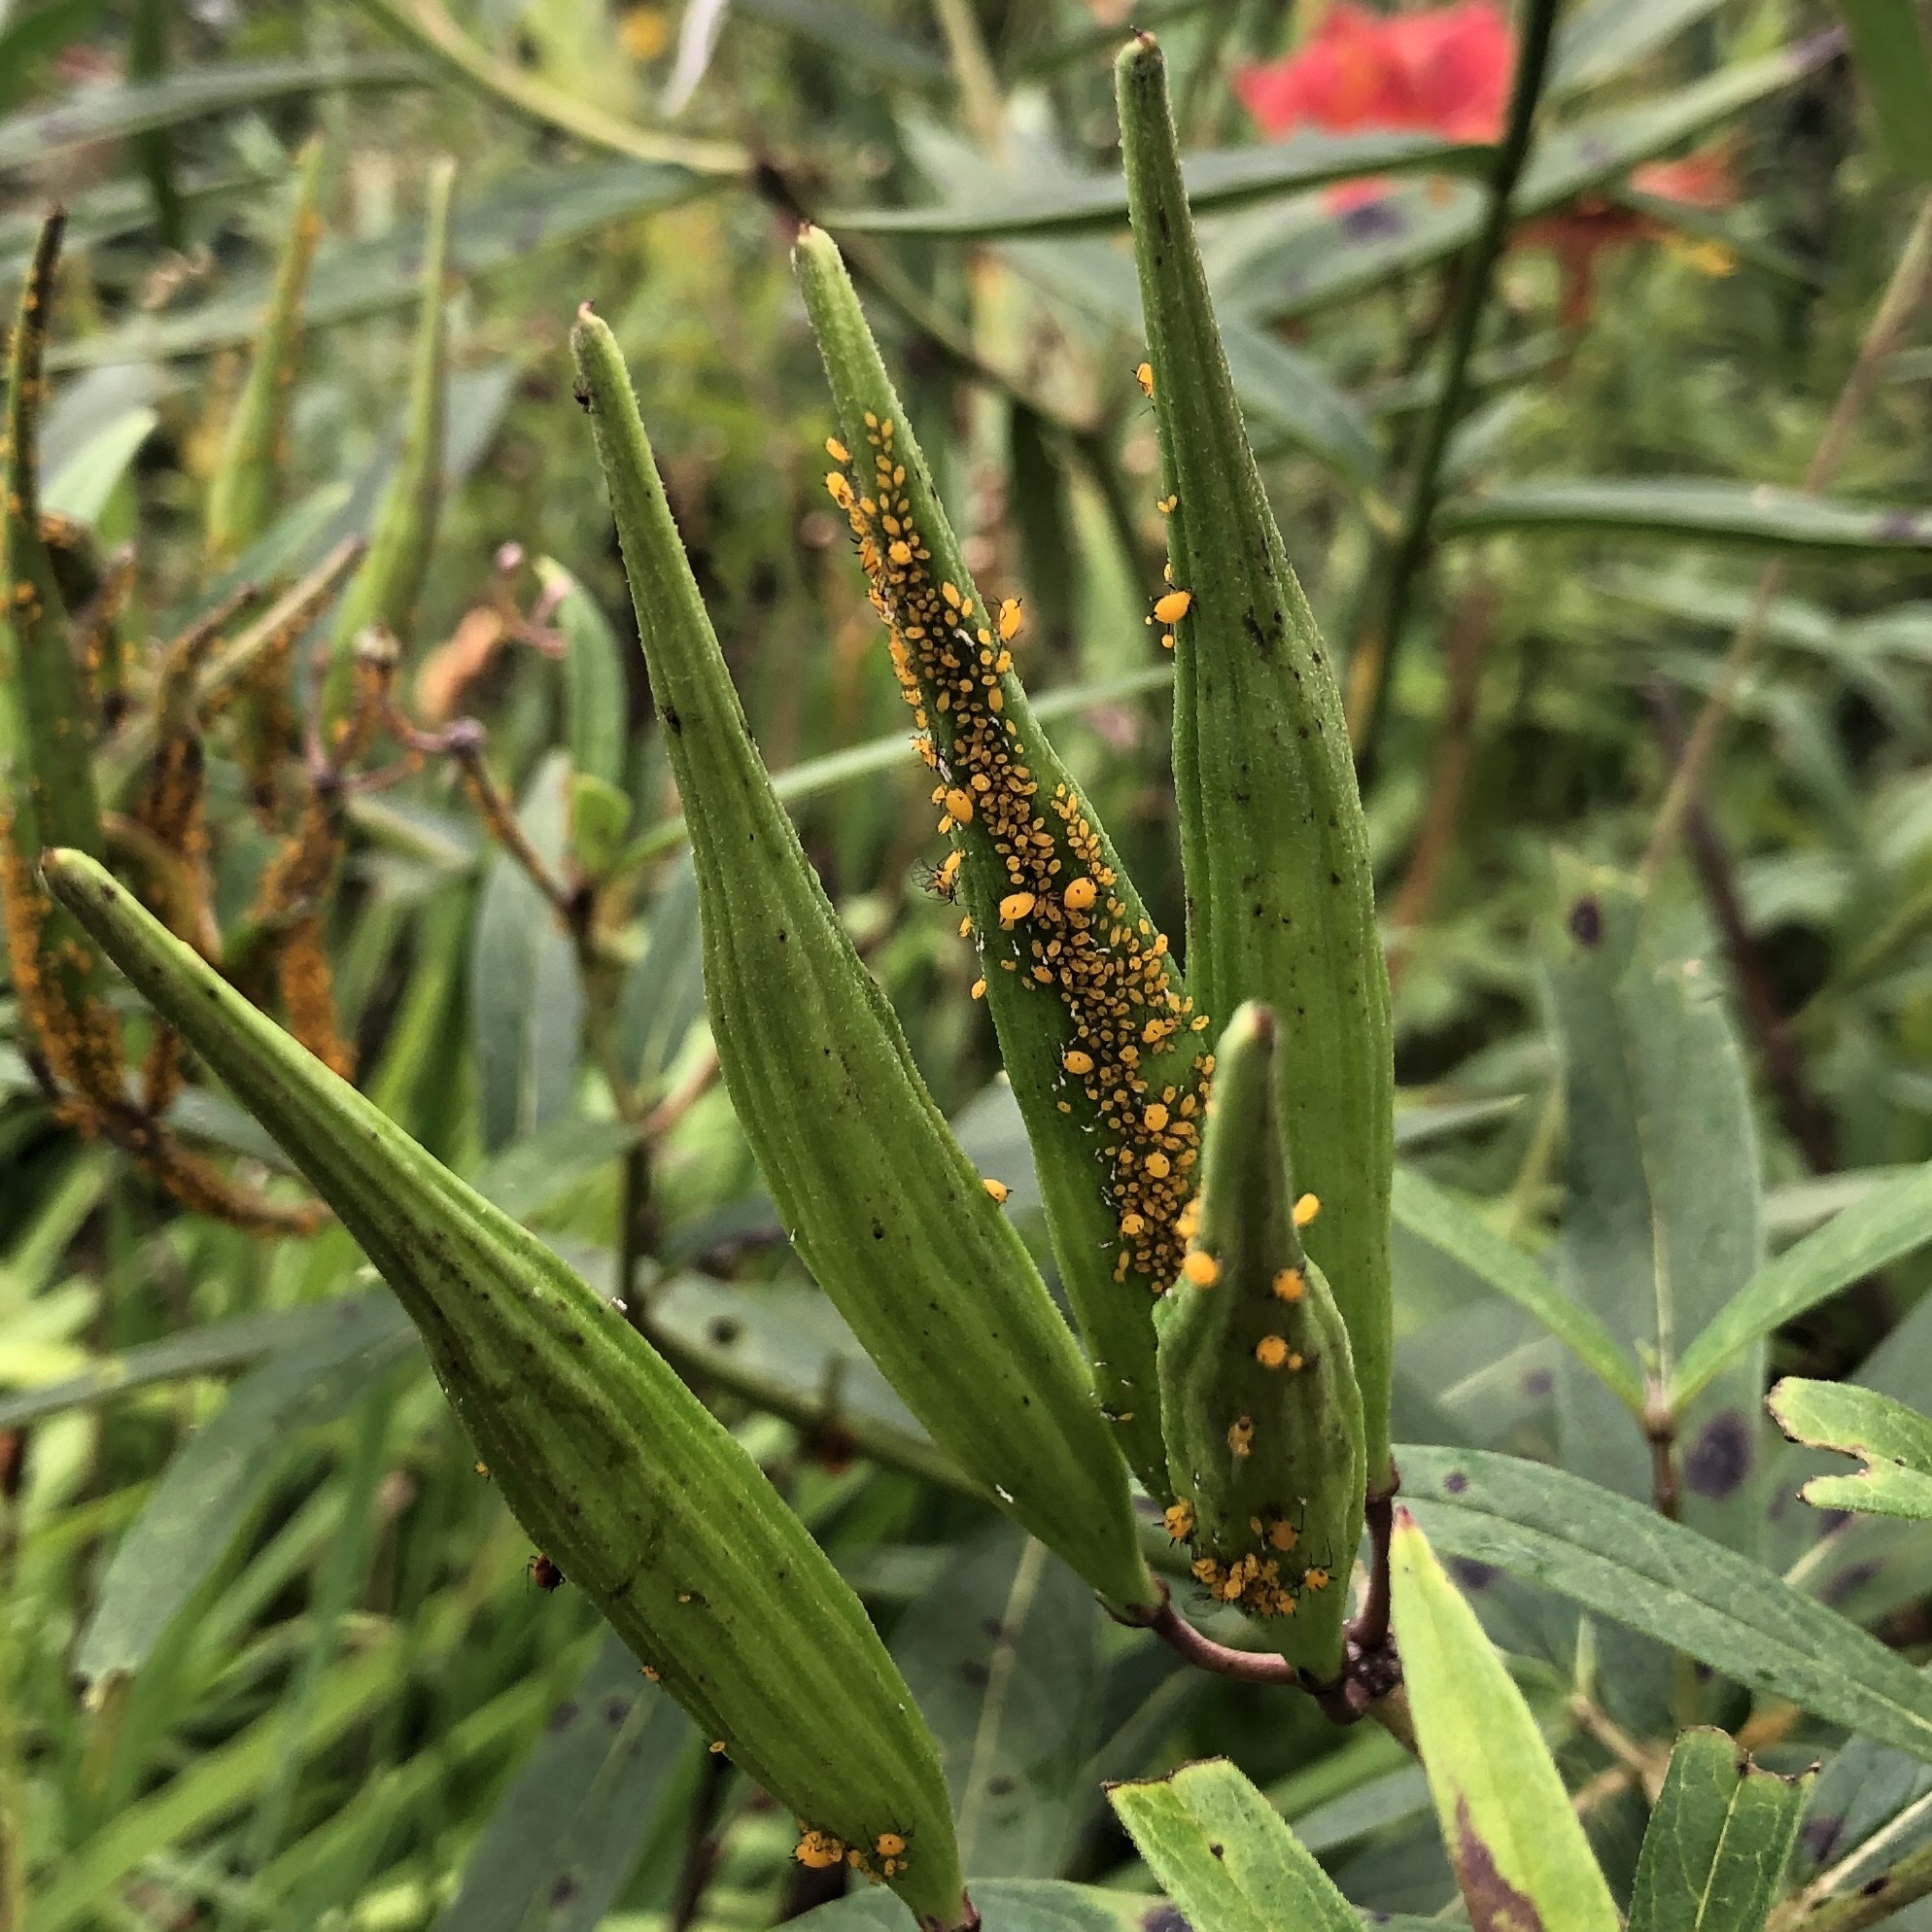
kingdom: Animalia
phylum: Arthropoda
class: Insecta
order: Hemiptera
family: Aphididae
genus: Aphis
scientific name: Aphis nerii
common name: Oleander aphid
